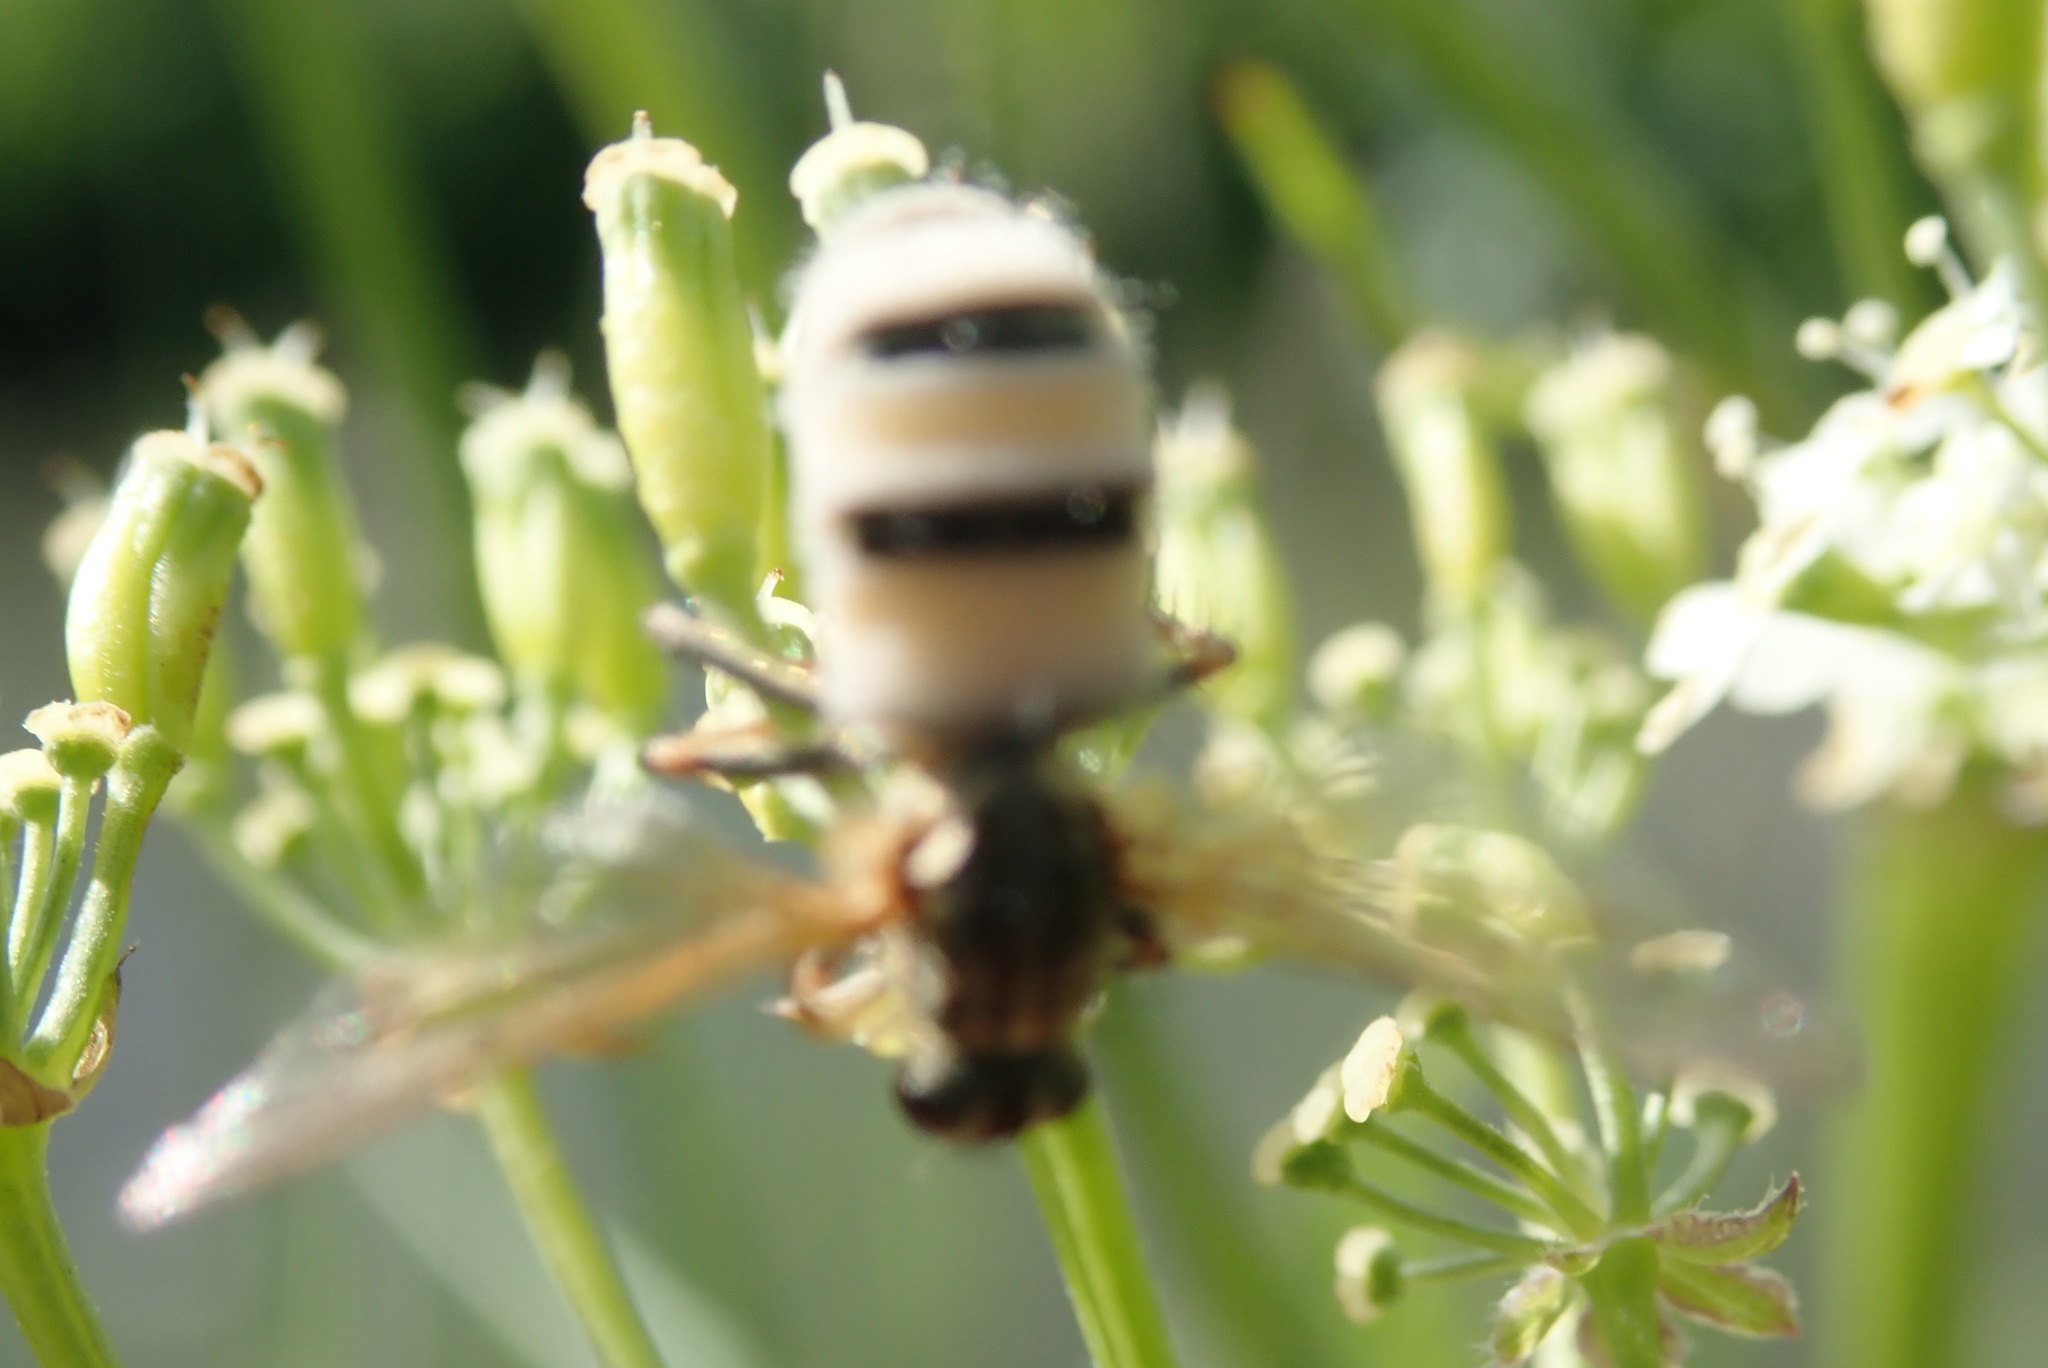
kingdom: Fungi
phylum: Entomophthoromycota
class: Entomophthoromycetes
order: Entomophthorales
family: Entomophthoraceae
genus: Entomophthora
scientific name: Entomophthora
